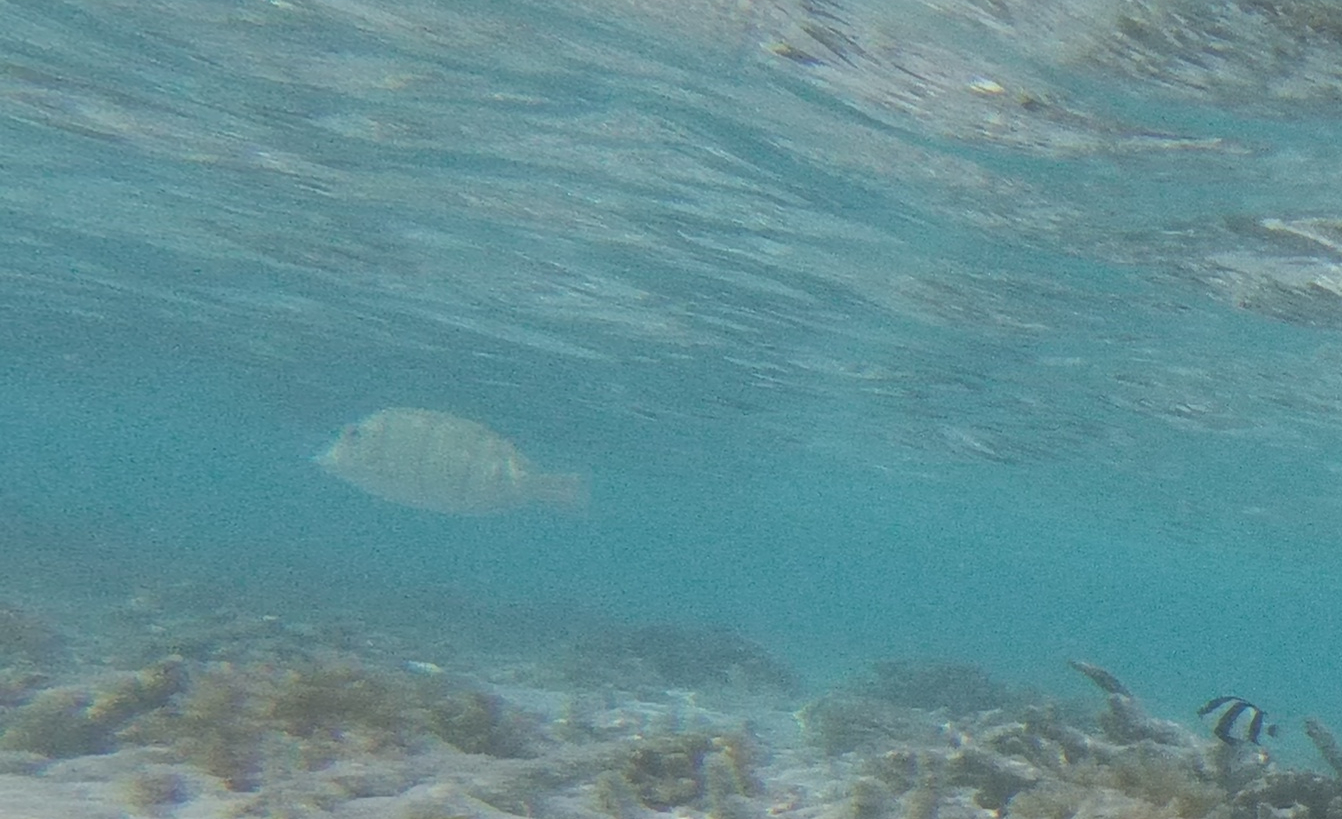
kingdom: Animalia
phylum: Chordata
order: Perciformes
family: Acanthuridae
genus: Acanthurus
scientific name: Acanthurus triostegus
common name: Convict surgeonfish
